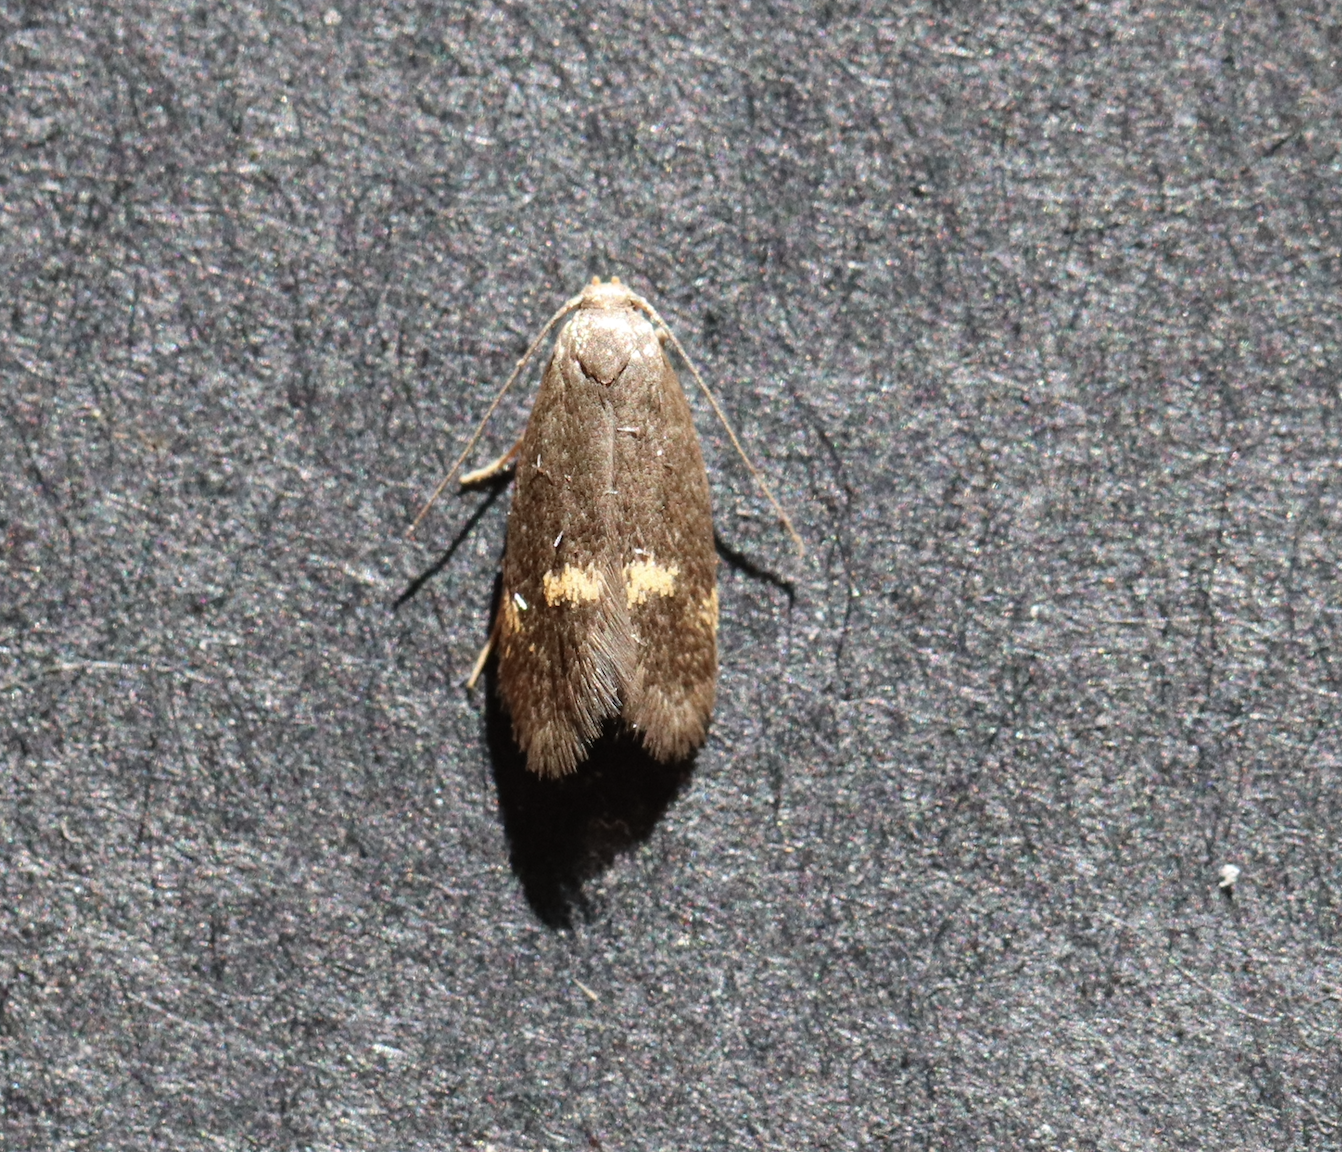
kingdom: Animalia
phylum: Arthropoda
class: Insecta
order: Lepidoptera
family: Oecophoridae
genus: Borkhausenia
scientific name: Borkhausenia minutella
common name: Thatch tubic
